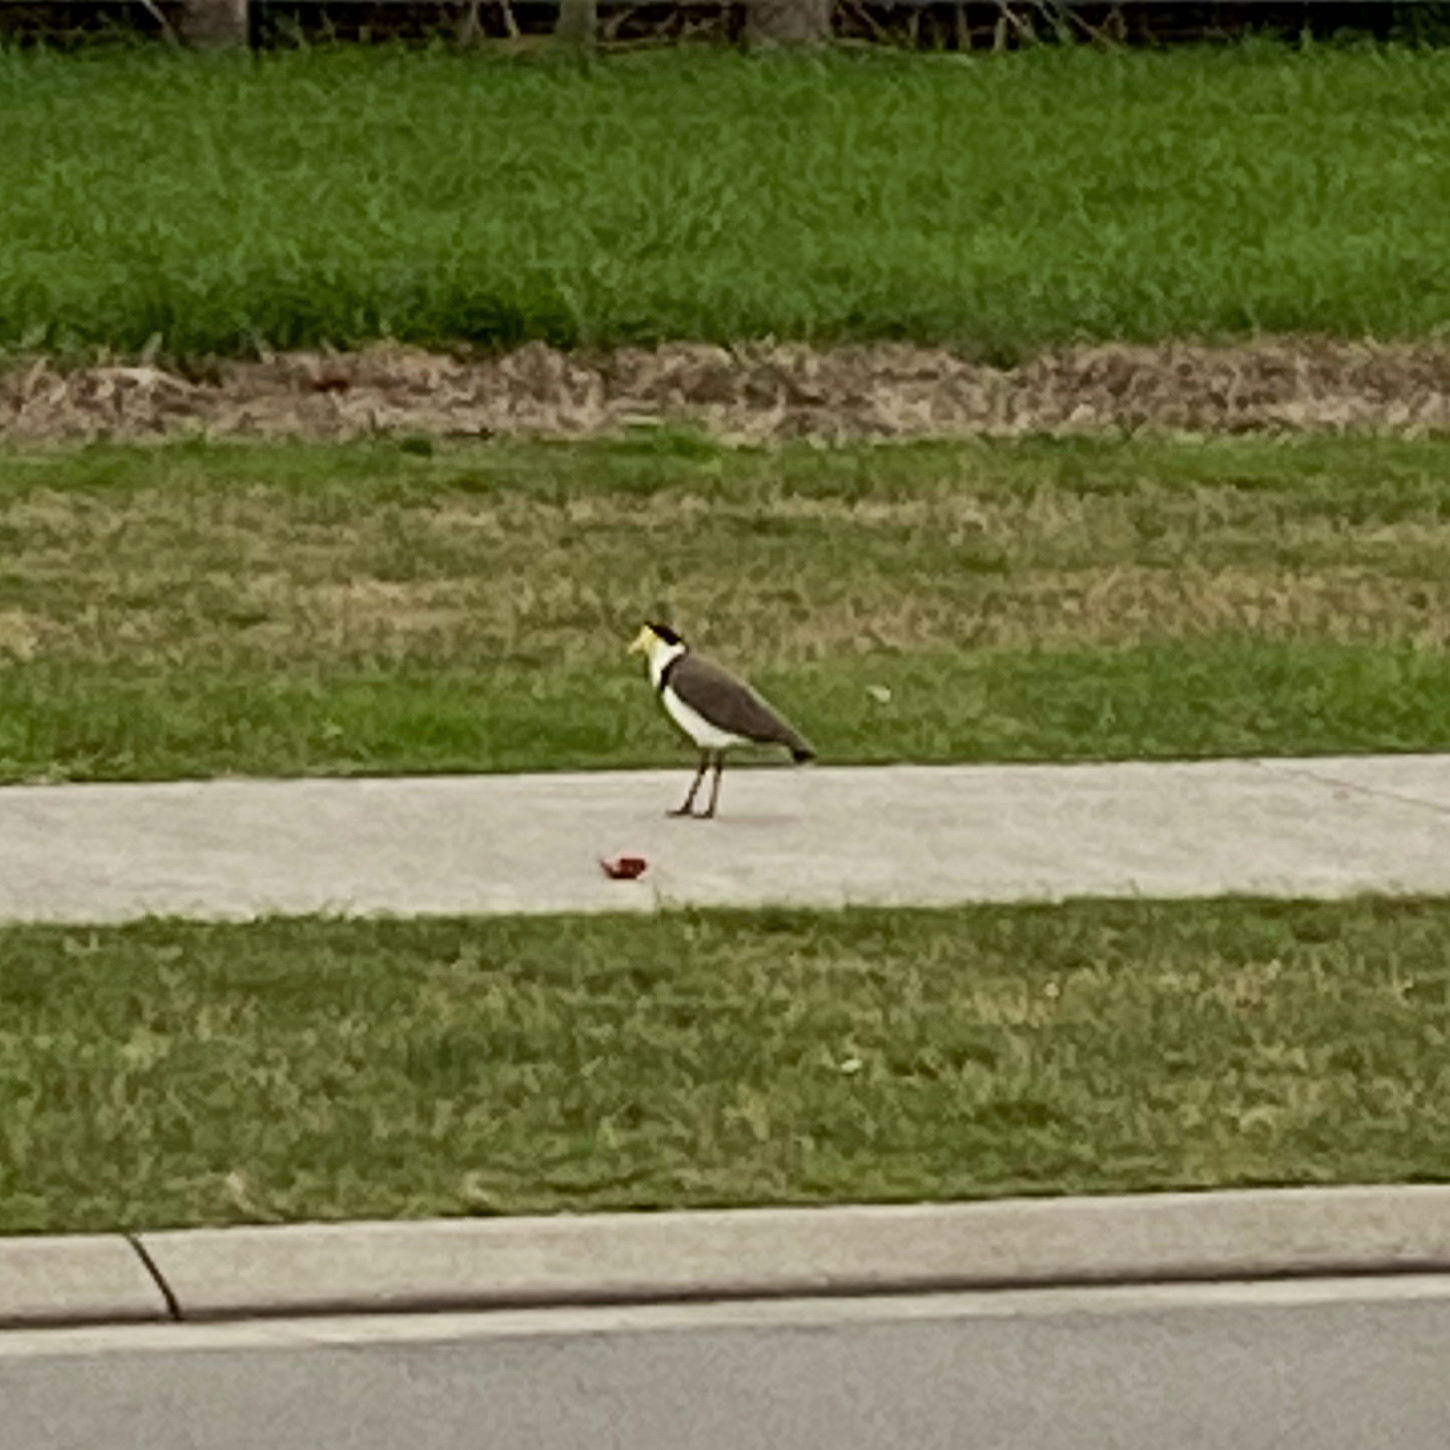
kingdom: Animalia
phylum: Chordata
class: Aves
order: Charadriiformes
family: Charadriidae
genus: Vanellus
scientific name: Vanellus miles
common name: Masked lapwing
